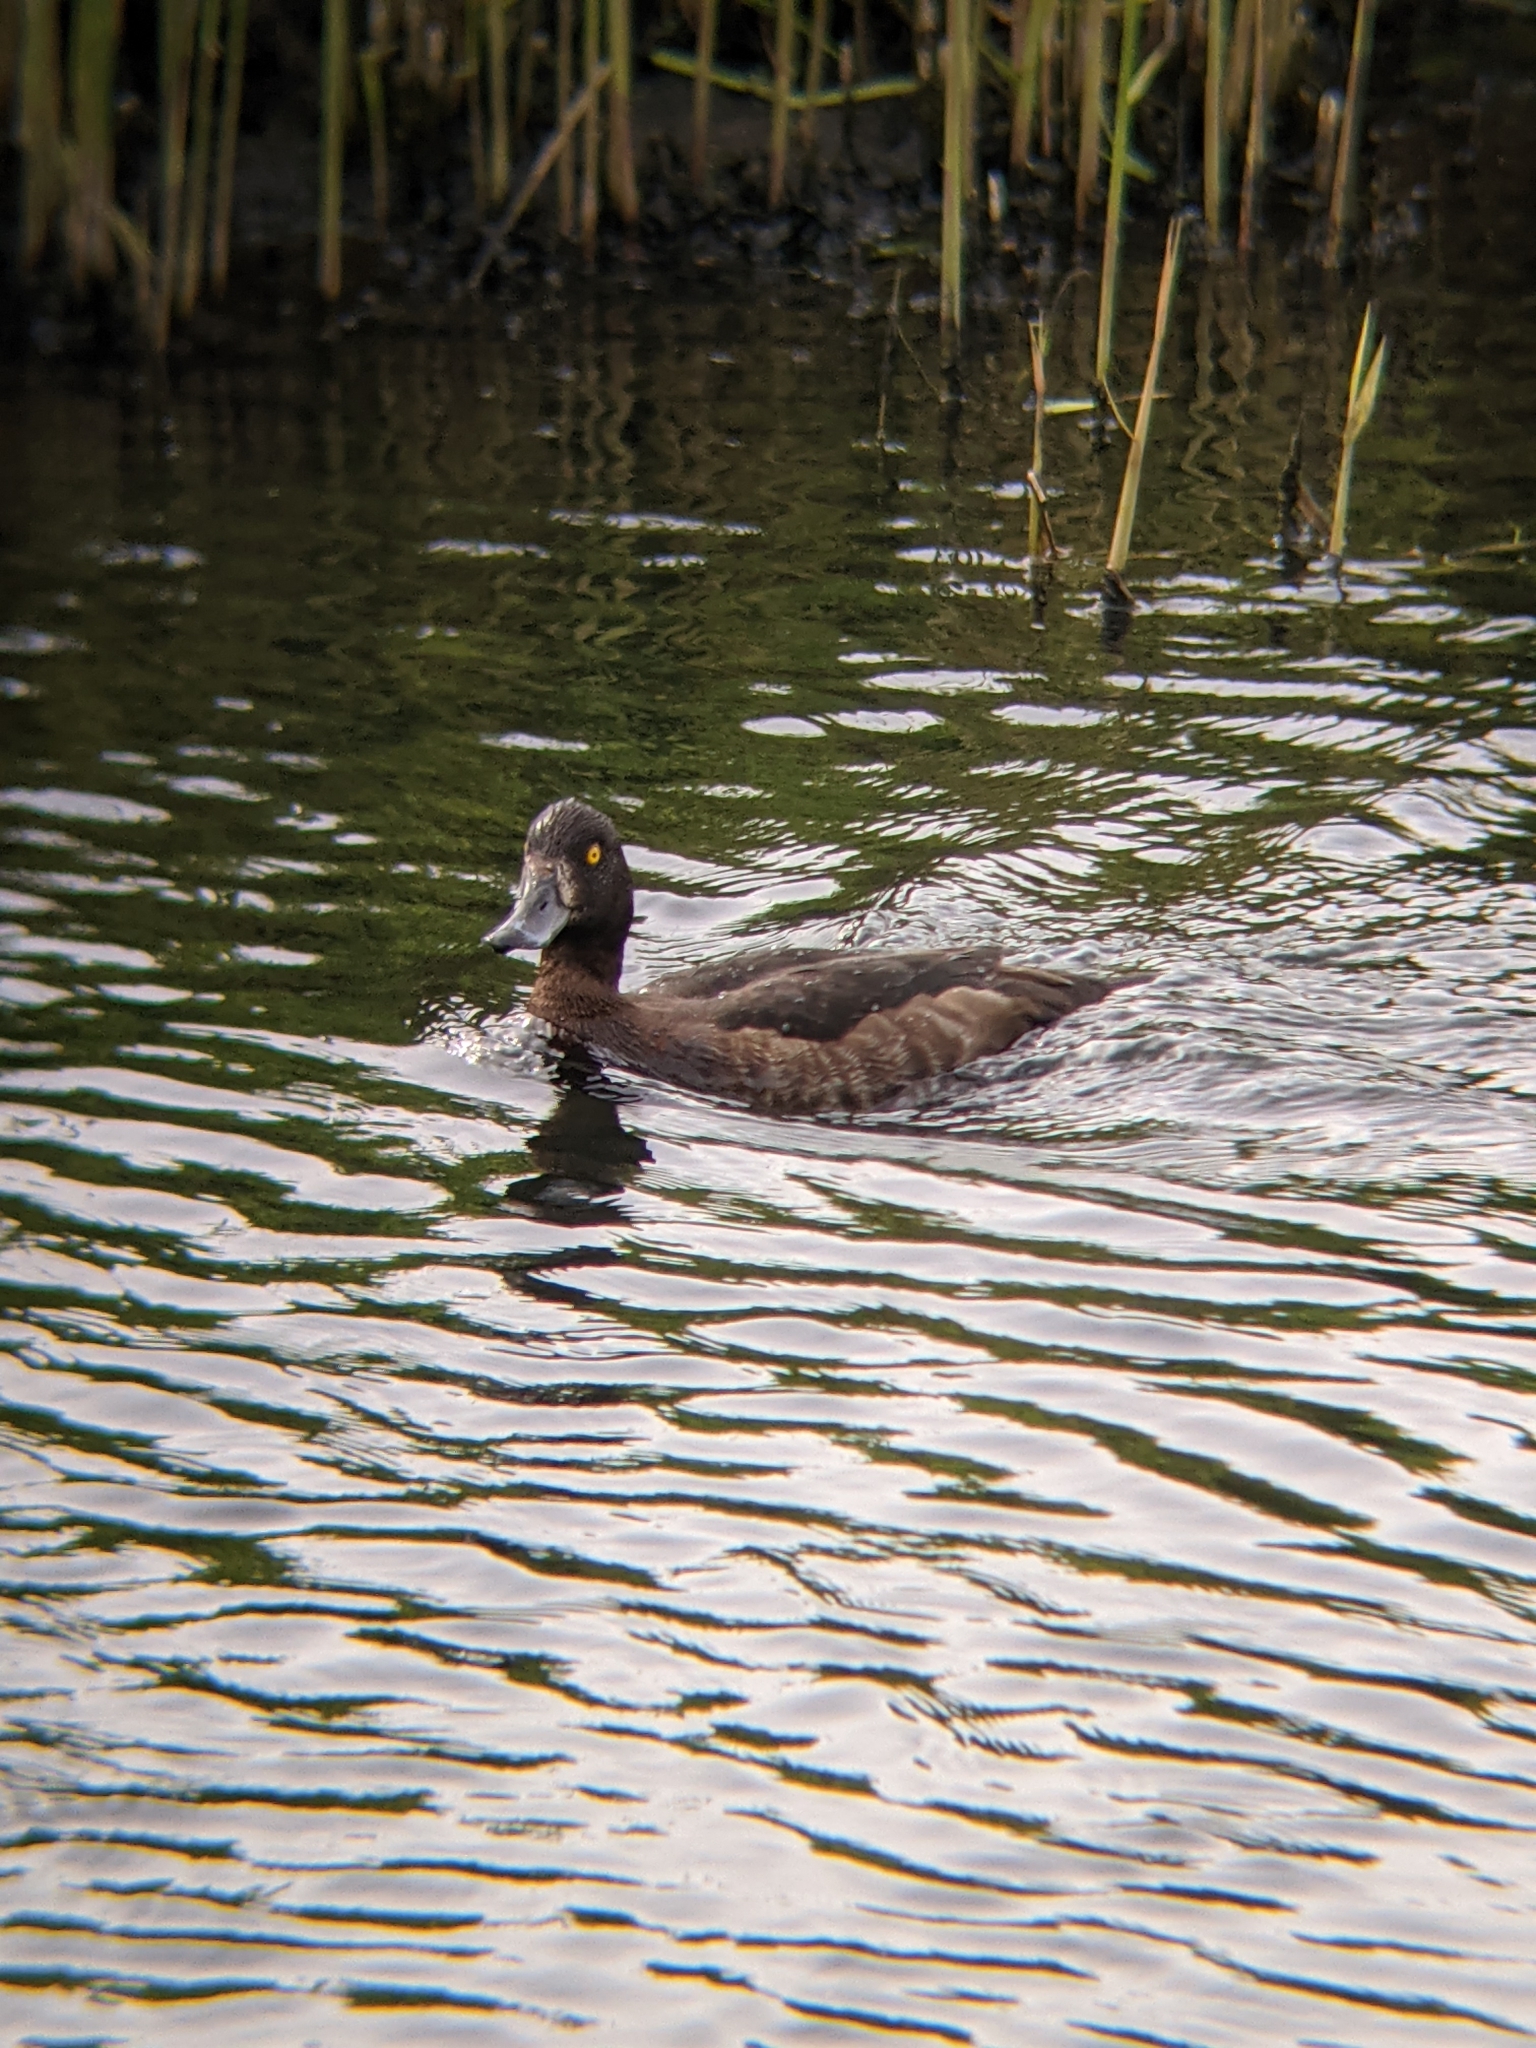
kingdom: Animalia
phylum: Chordata
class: Aves
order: Anseriformes
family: Anatidae
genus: Aythya
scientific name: Aythya fuligula
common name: Tufted duck
